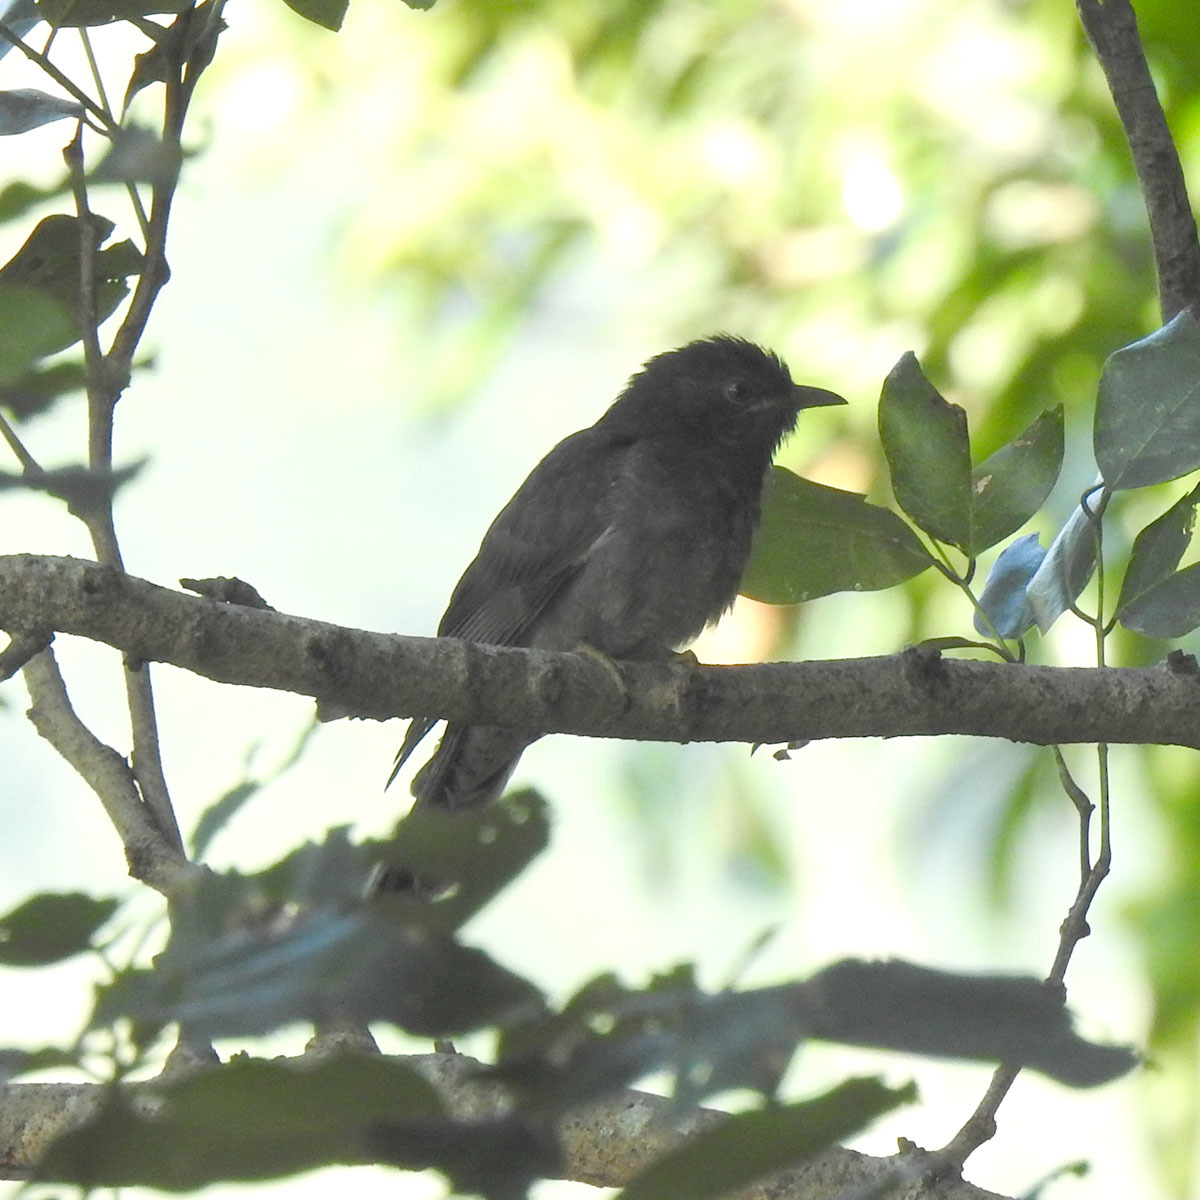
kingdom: Animalia
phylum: Chordata
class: Aves
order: Cuculiformes
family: Cuculidae
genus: Cacomantis
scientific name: Cacomantis passerinus
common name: Grey-bellied cuckoo
